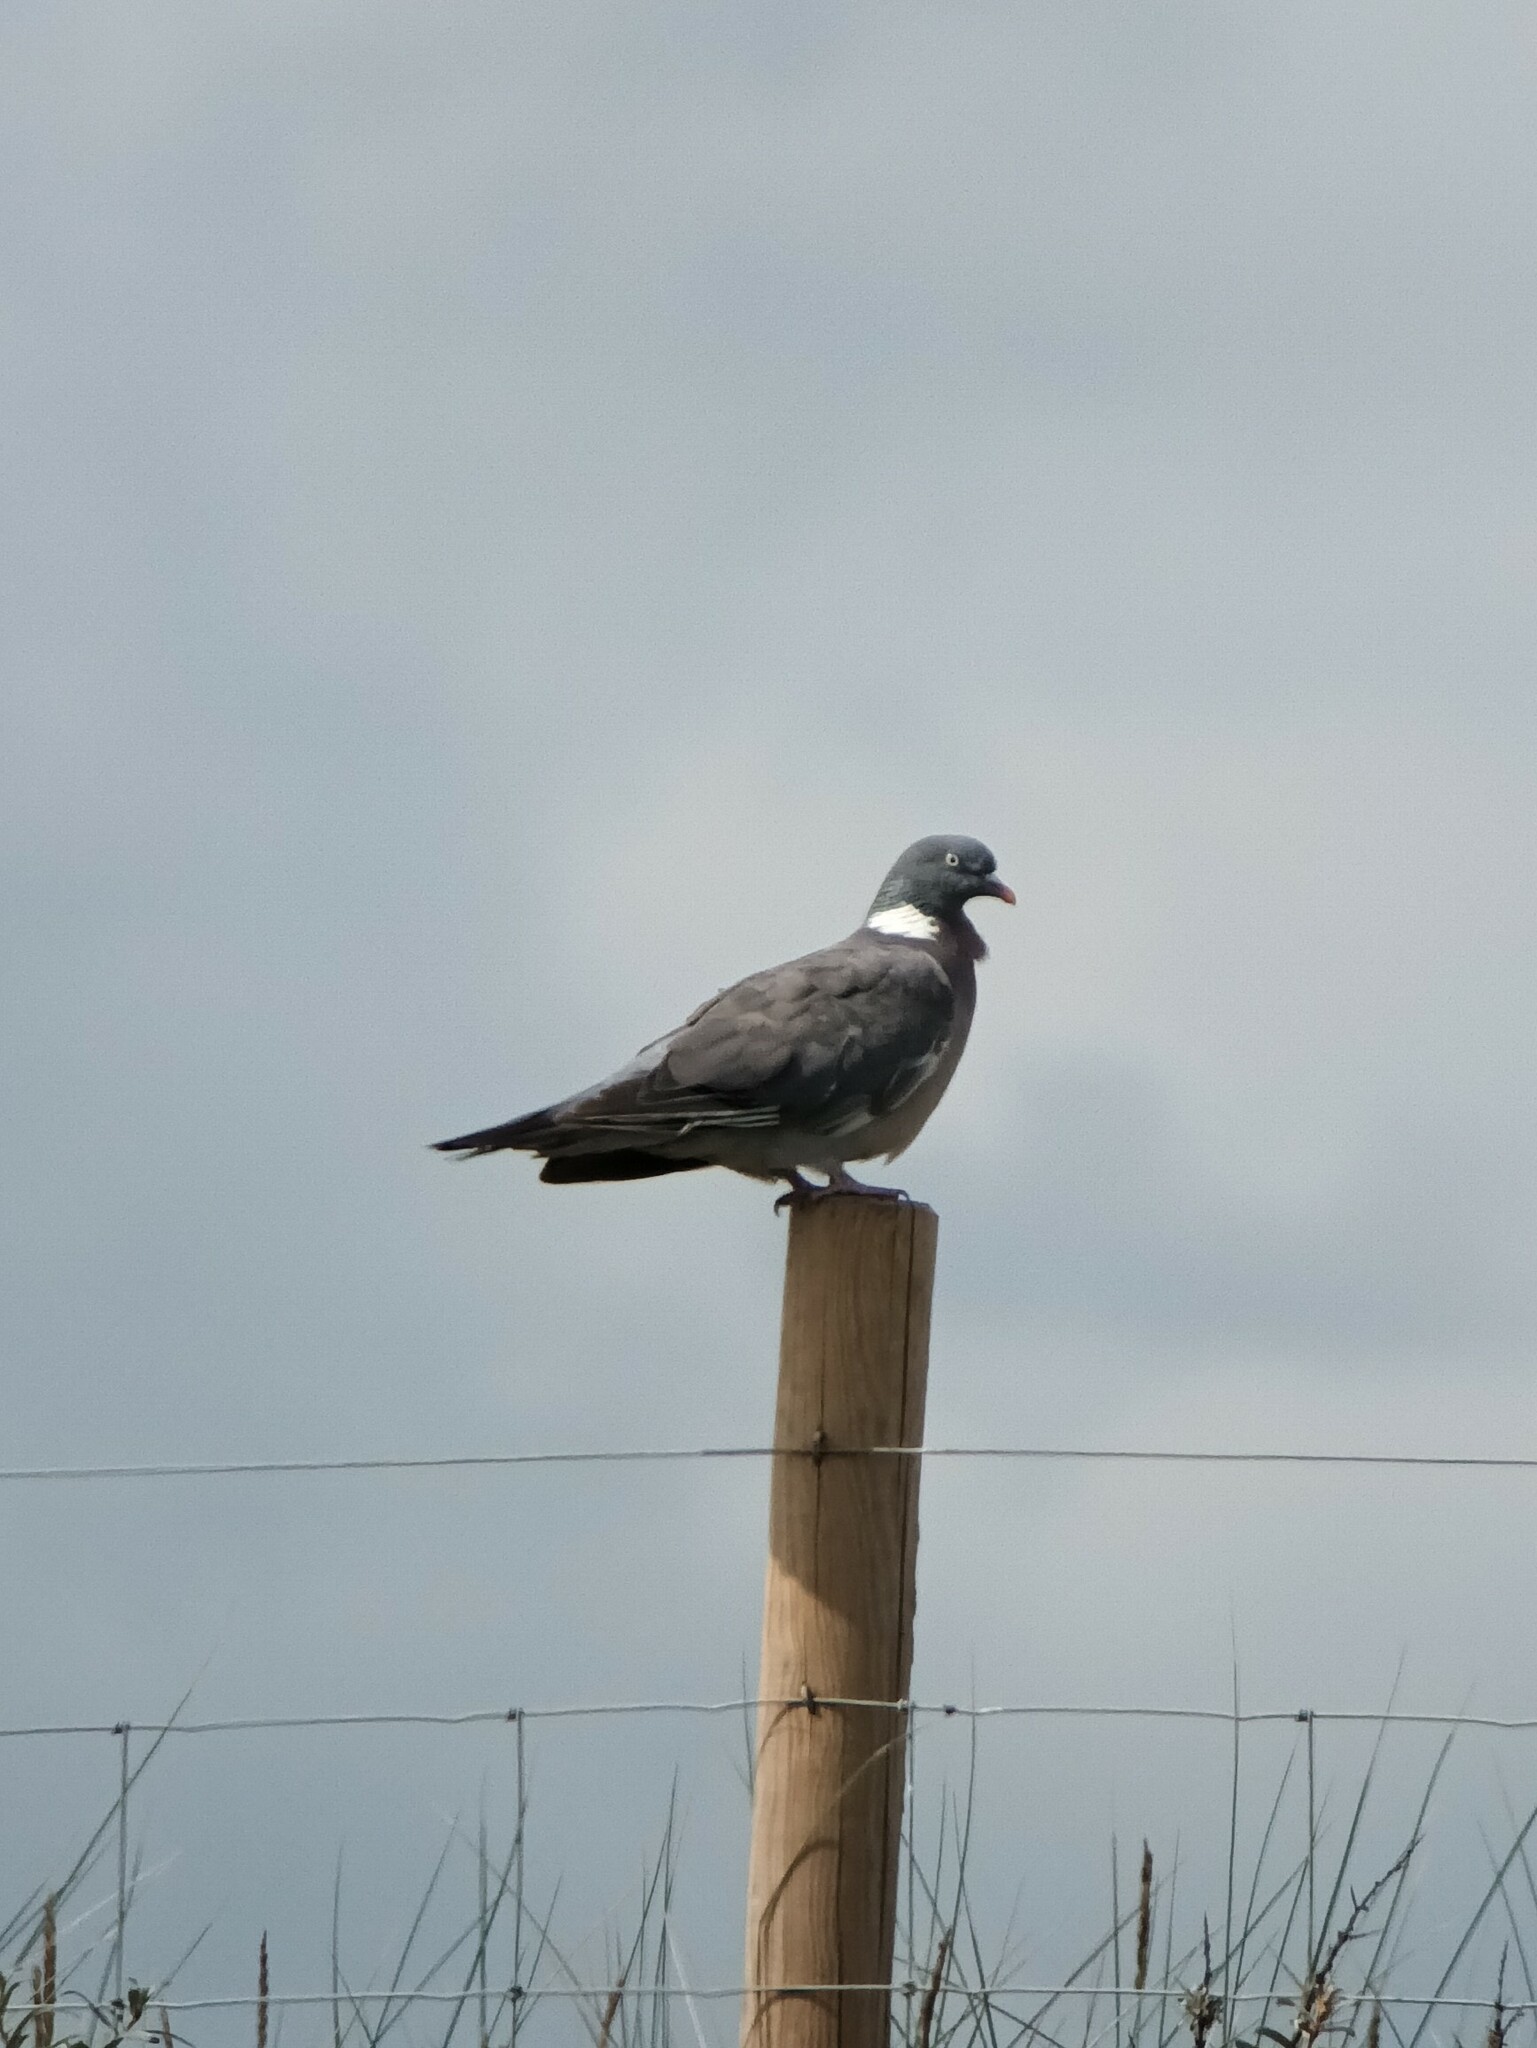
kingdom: Animalia
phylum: Chordata
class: Aves
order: Columbiformes
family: Columbidae
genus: Columba
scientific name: Columba palumbus
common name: Common wood pigeon
